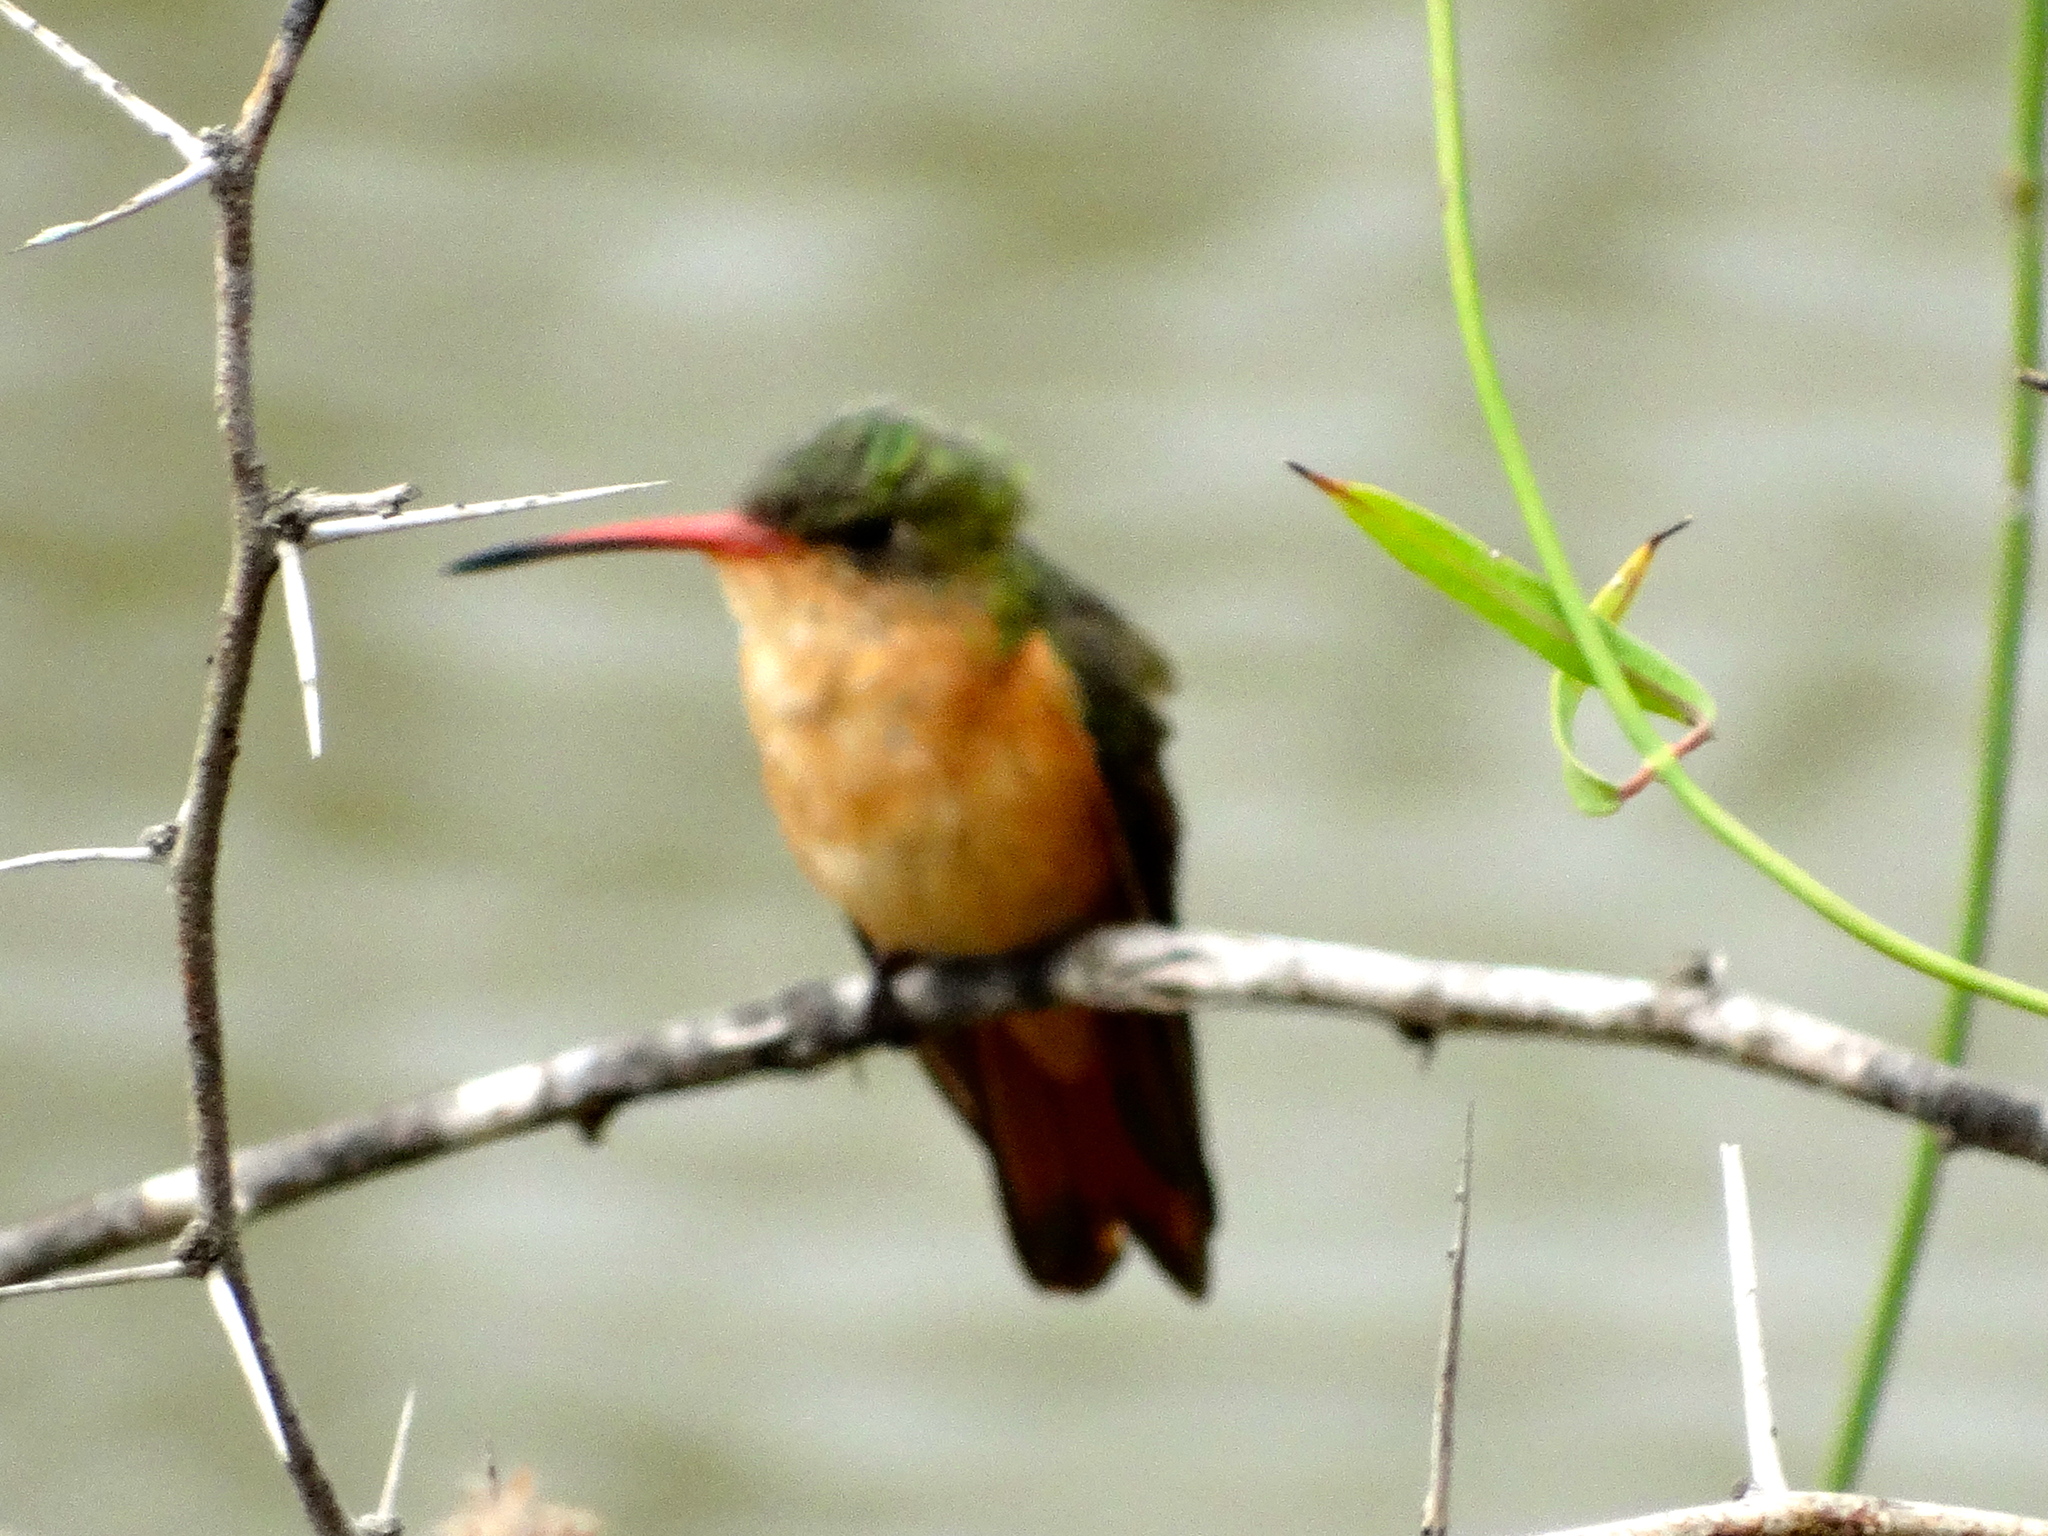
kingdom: Animalia
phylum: Chordata
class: Aves
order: Apodiformes
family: Trochilidae
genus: Amazilia
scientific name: Amazilia rutila
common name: Cinnamon hummingbird
